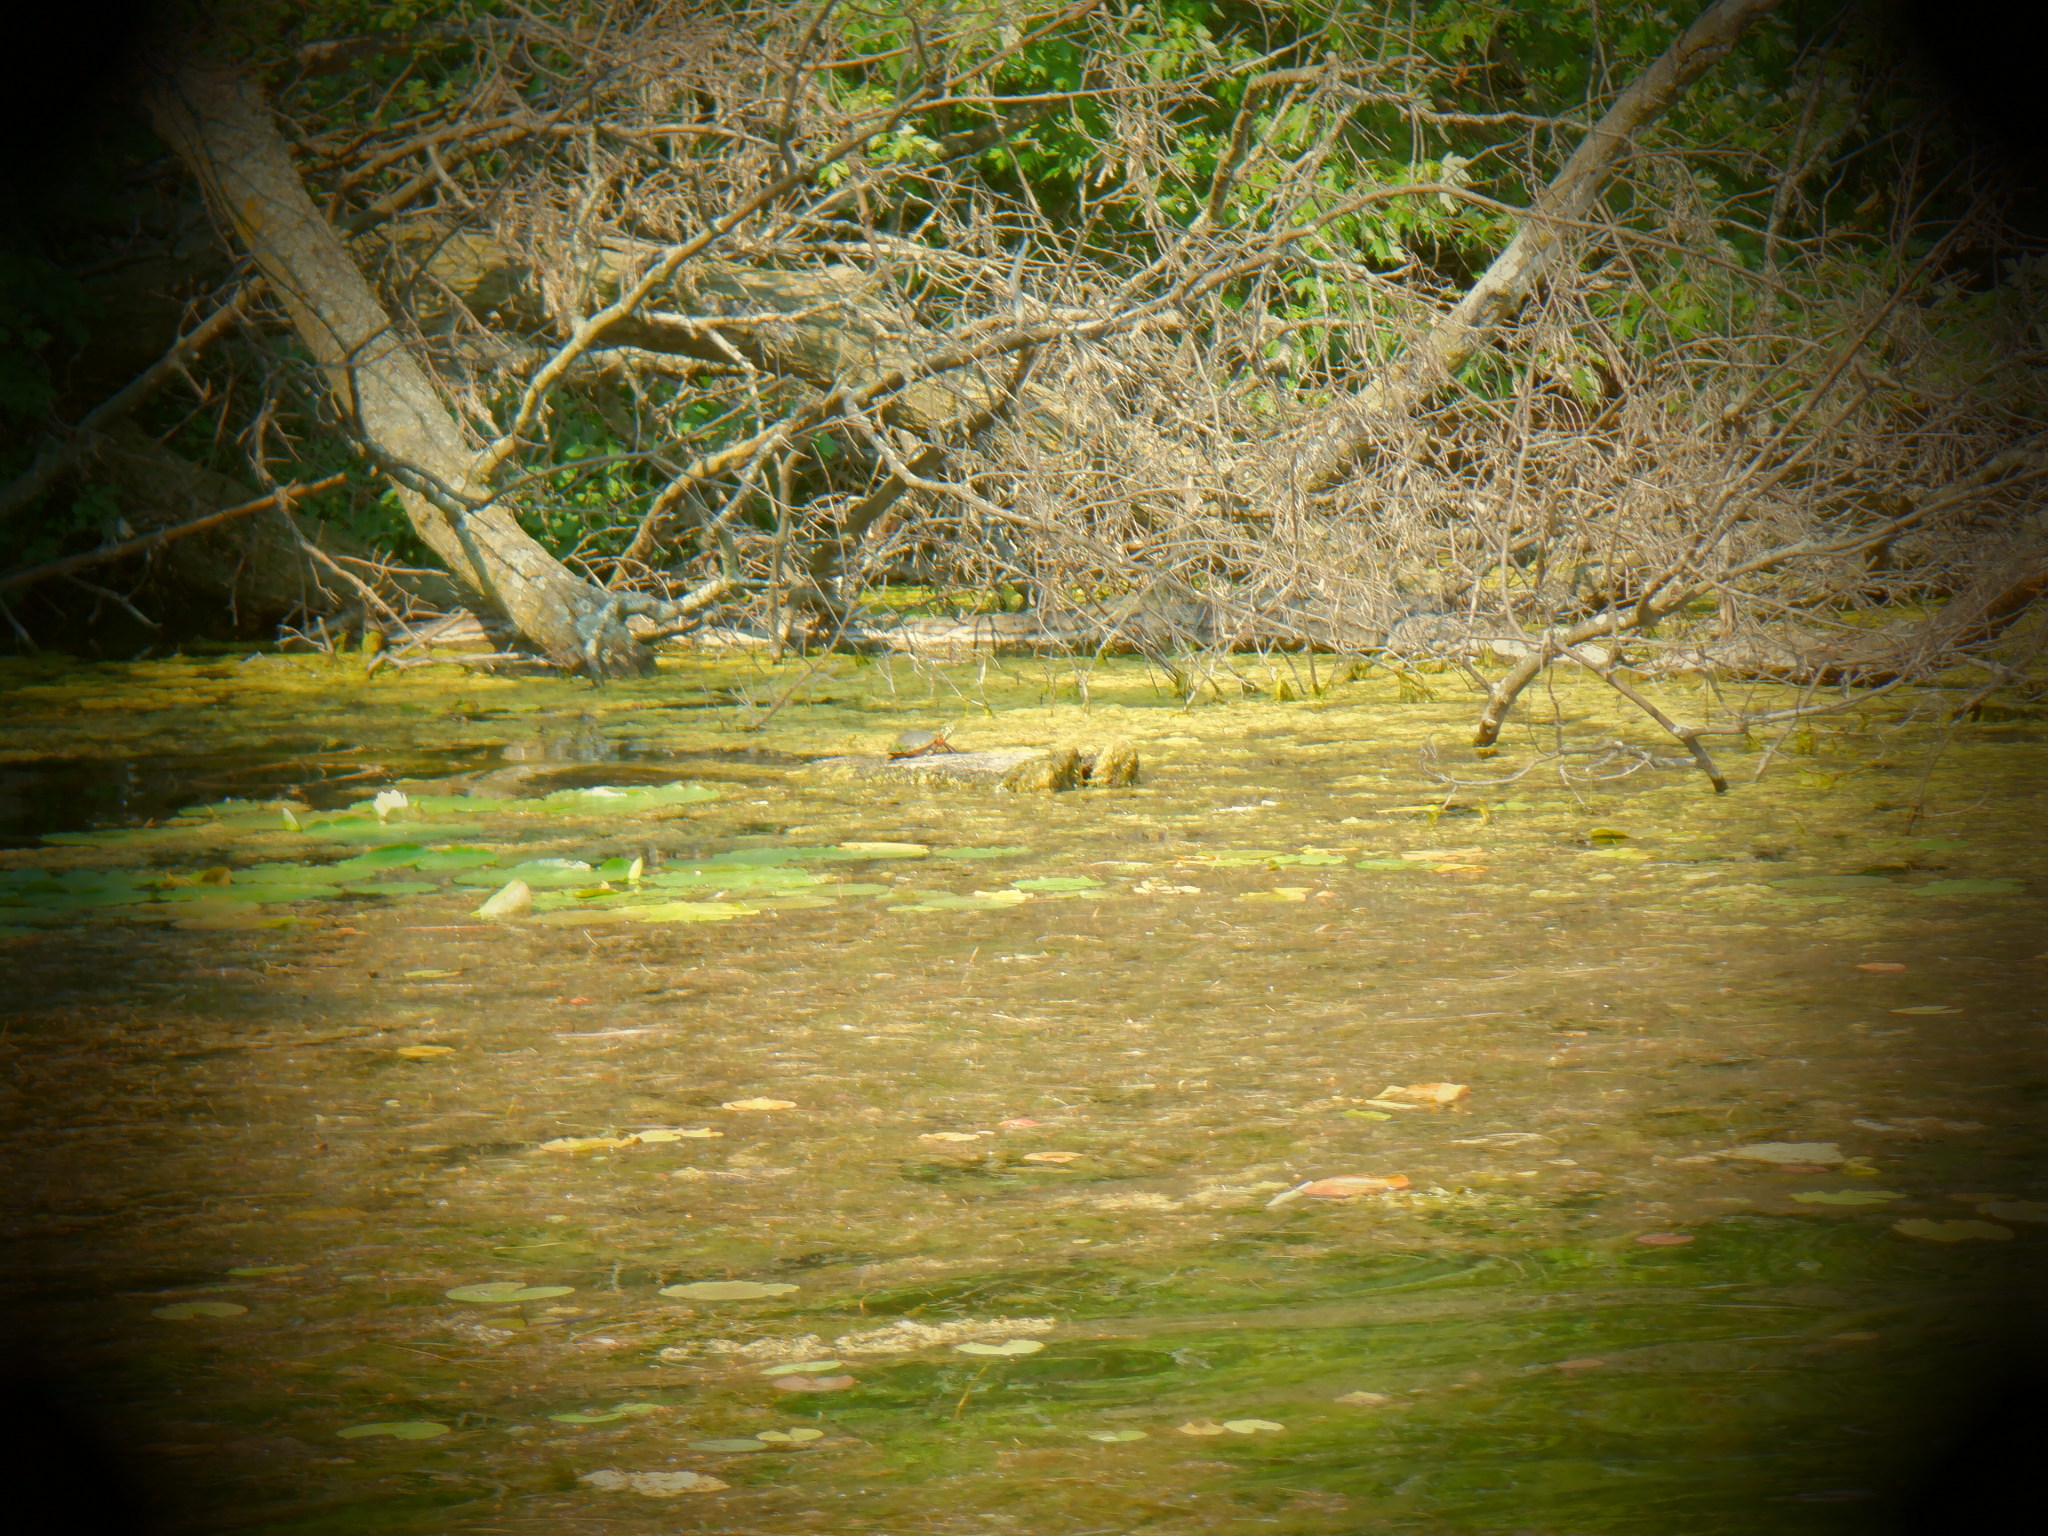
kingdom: Animalia
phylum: Chordata
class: Testudines
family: Emydidae
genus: Chrysemys
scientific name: Chrysemys picta
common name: Painted turtle
